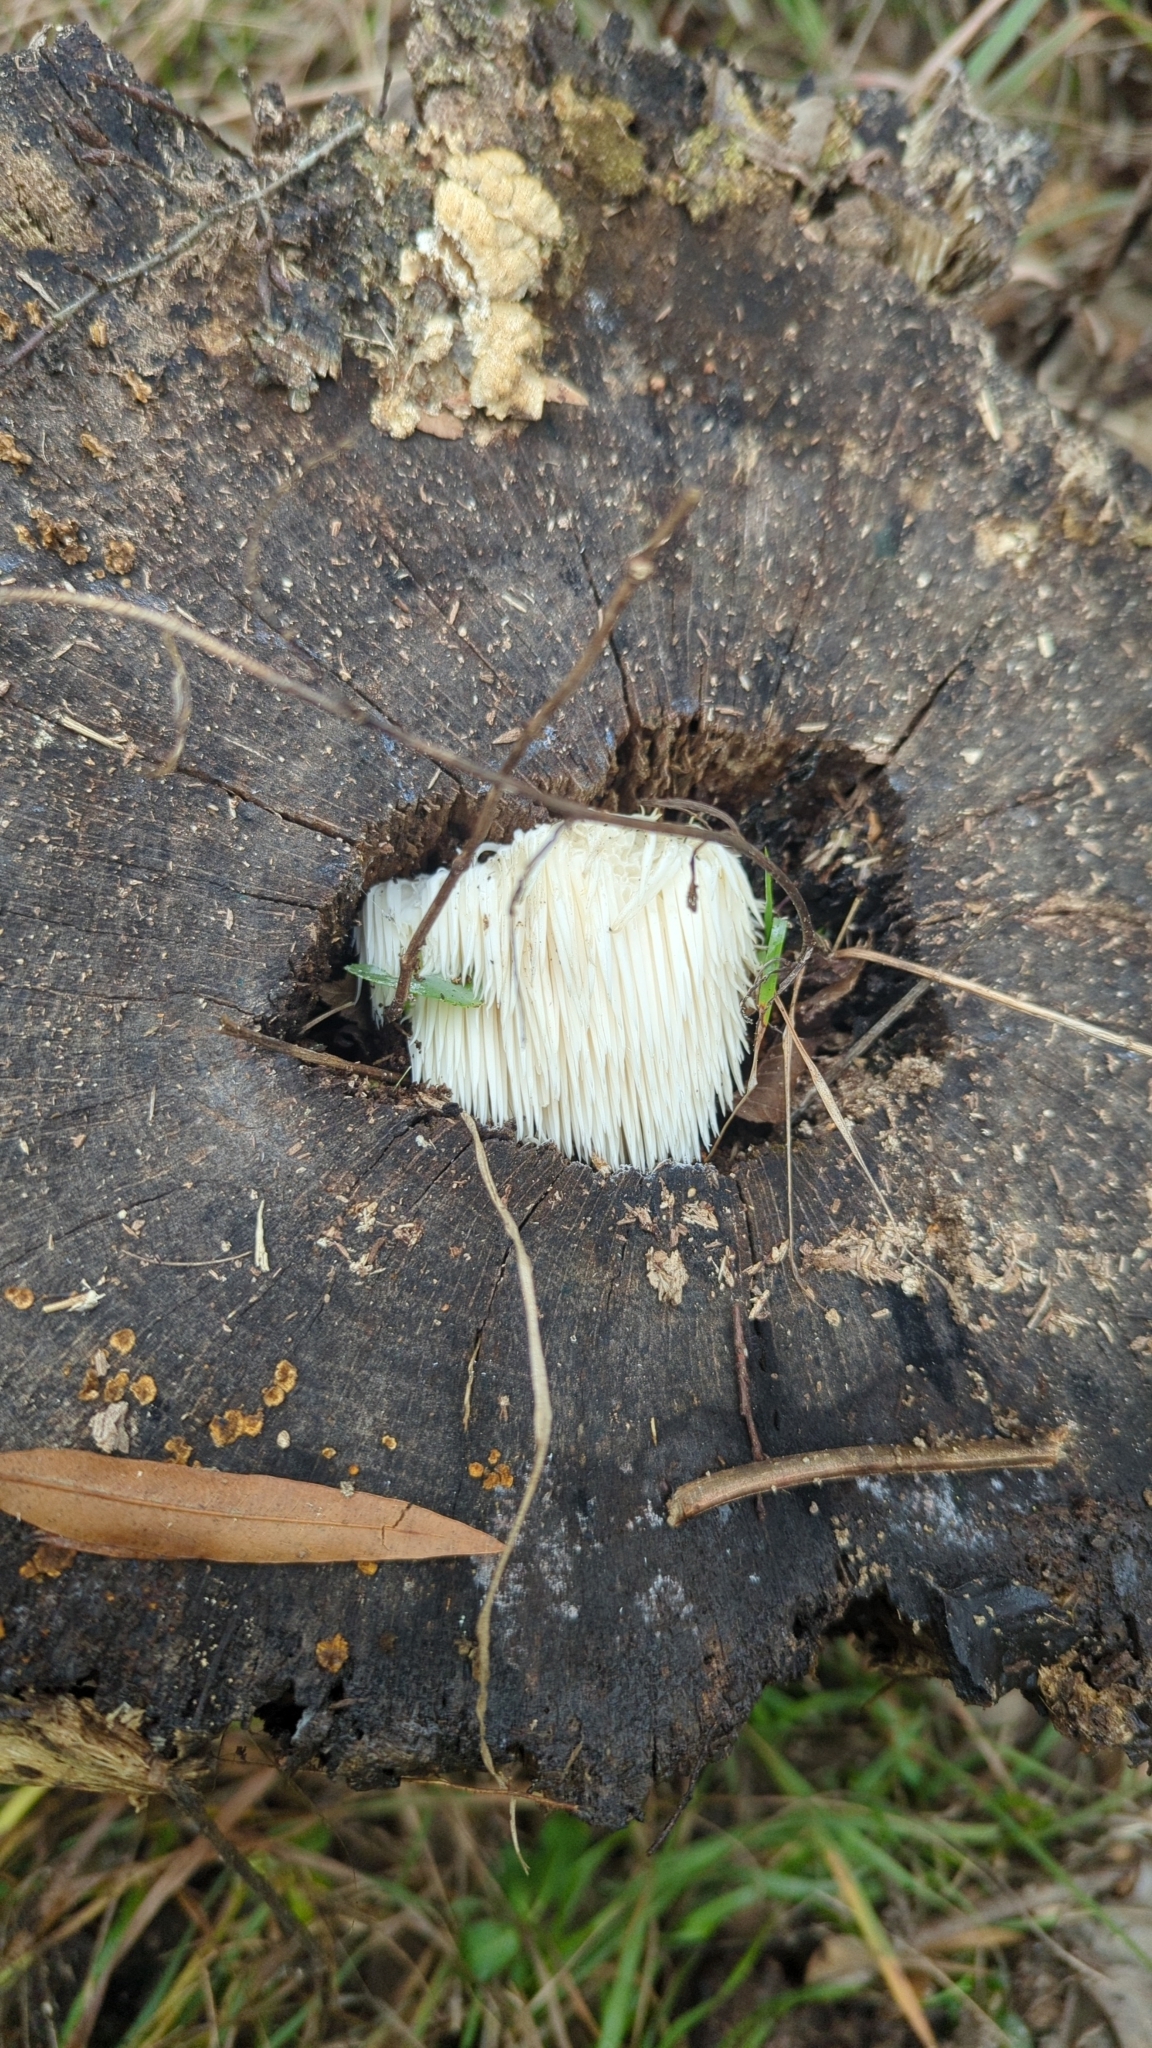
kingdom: Fungi
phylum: Basidiomycota
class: Agaricomycetes
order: Russulales
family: Hericiaceae
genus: Hericium
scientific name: Hericium erinaceus
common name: Bearded tooth
